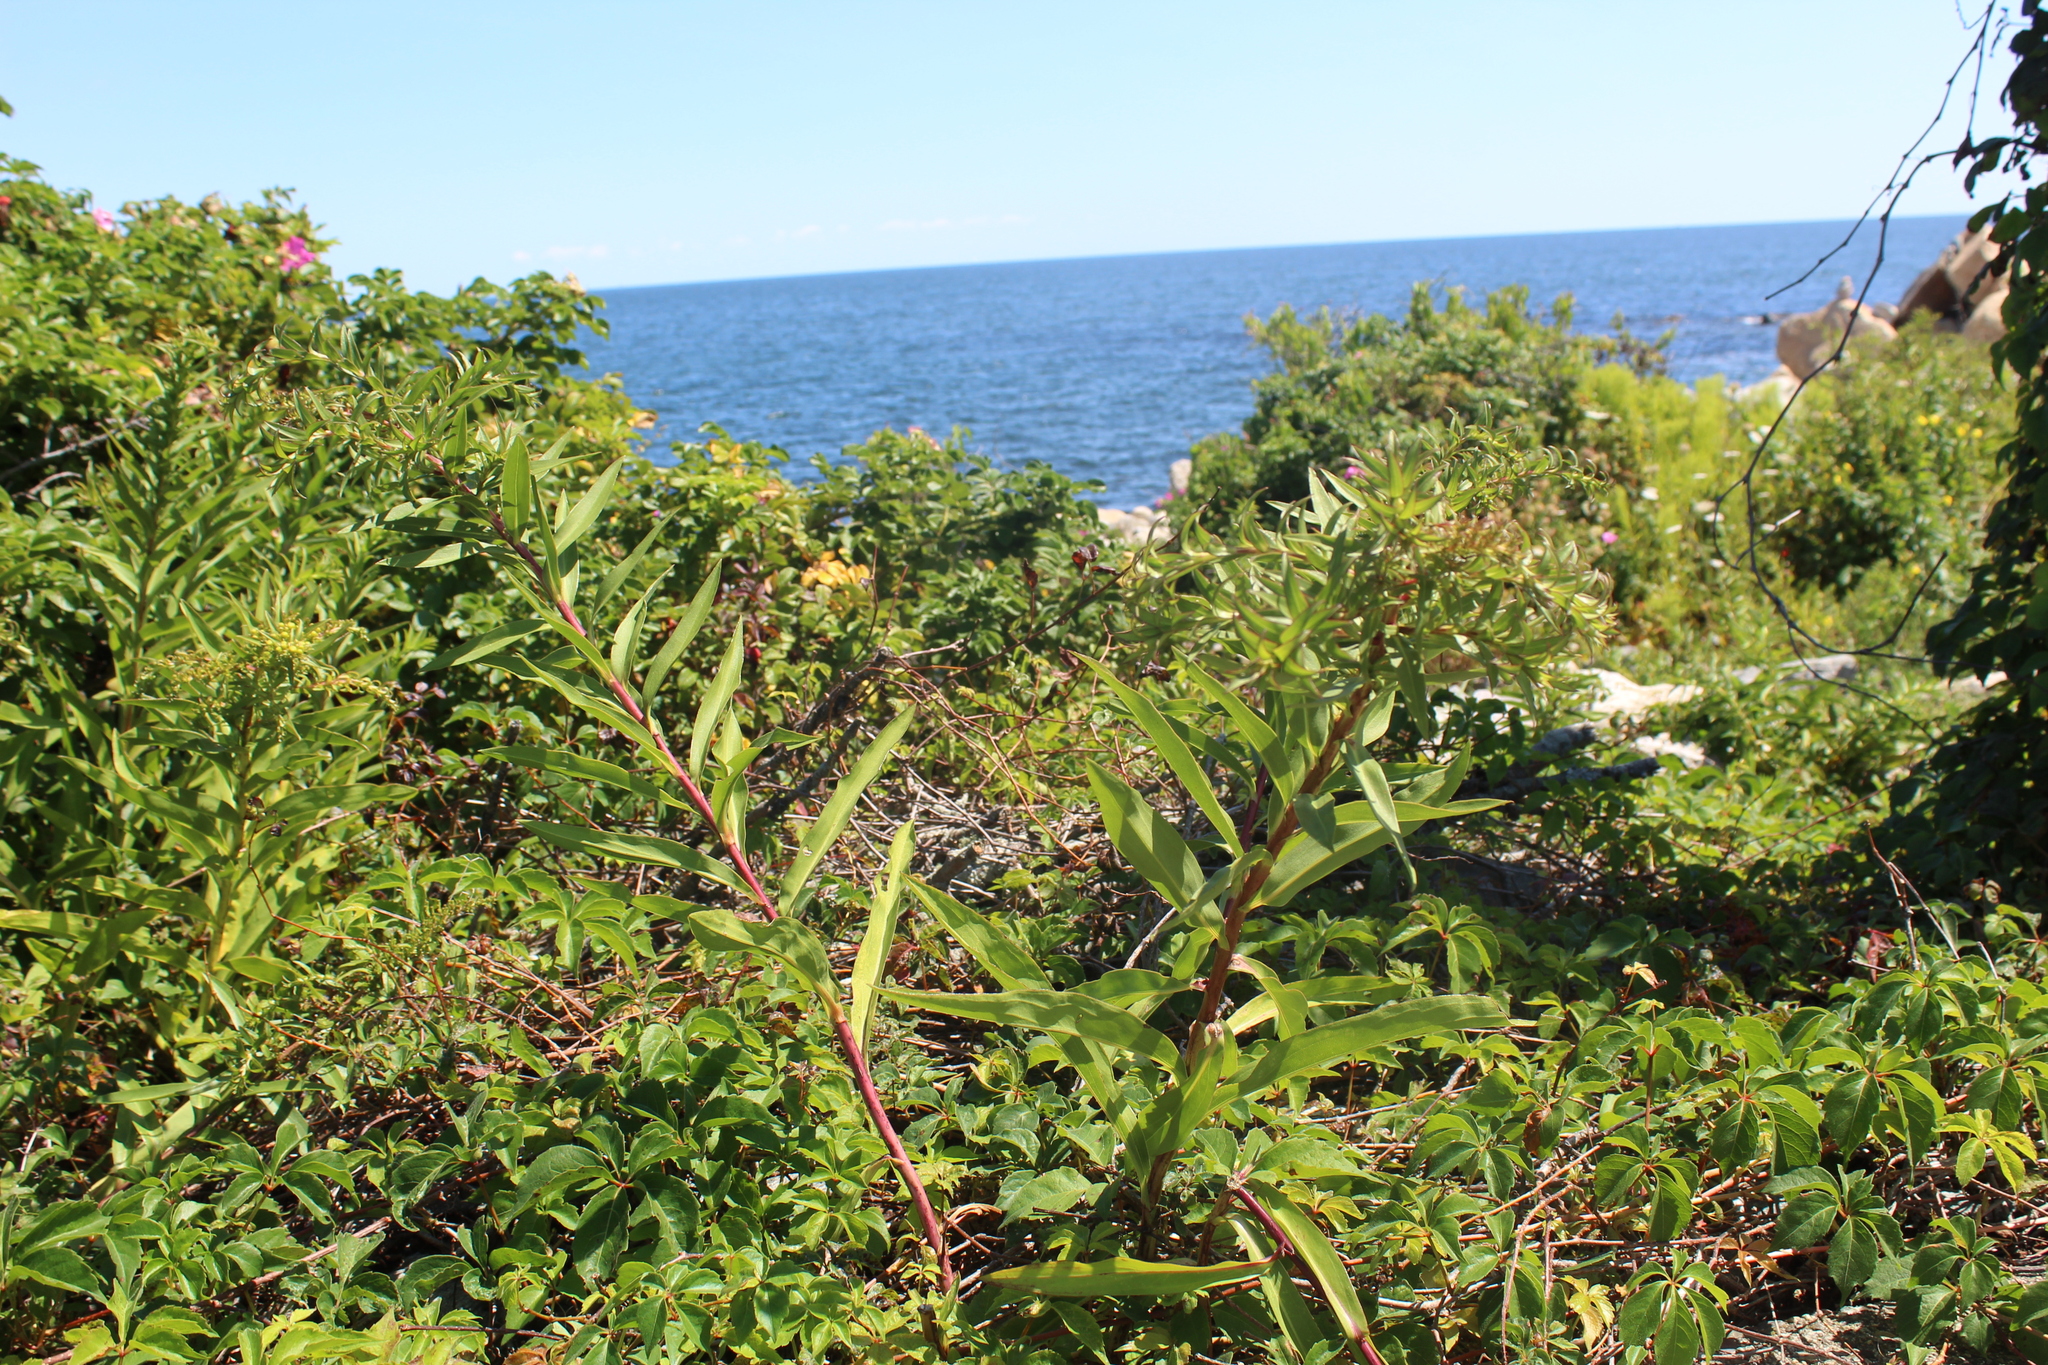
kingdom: Plantae
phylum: Tracheophyta
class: Magnoliopsida
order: Asterales
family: Asteraceae
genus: Solidago
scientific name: Solidago sempervirens
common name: Salt-marsh goldenrod
